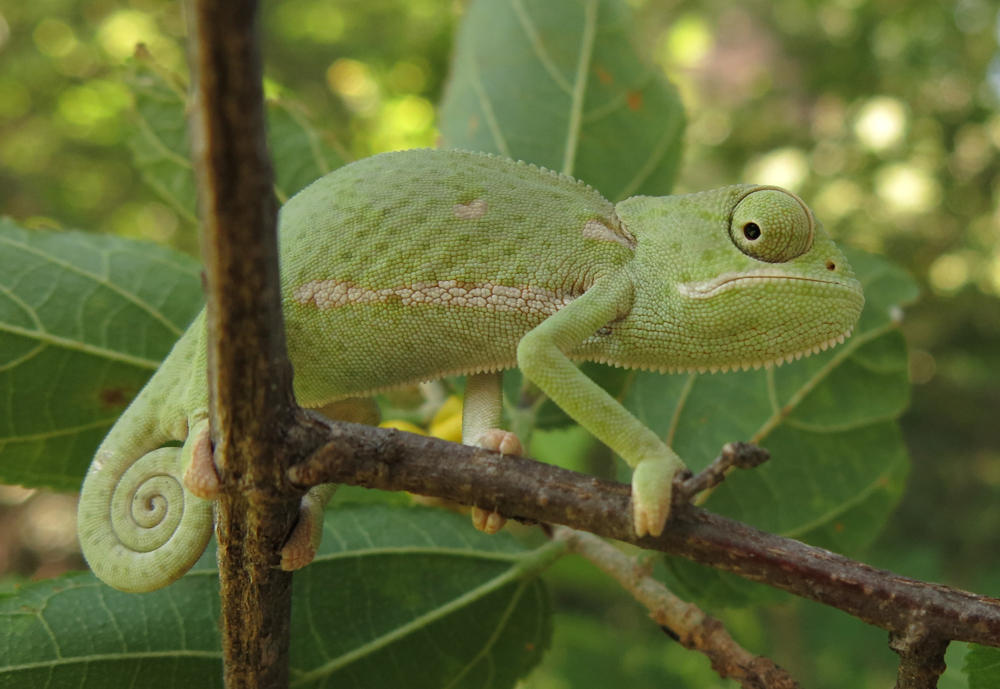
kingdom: Animalia
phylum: Chordata
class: Squamata
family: Chamaeleonidae
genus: Chamaeleo
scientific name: Chamaeleo dilepis
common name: Flapneck chameleon
